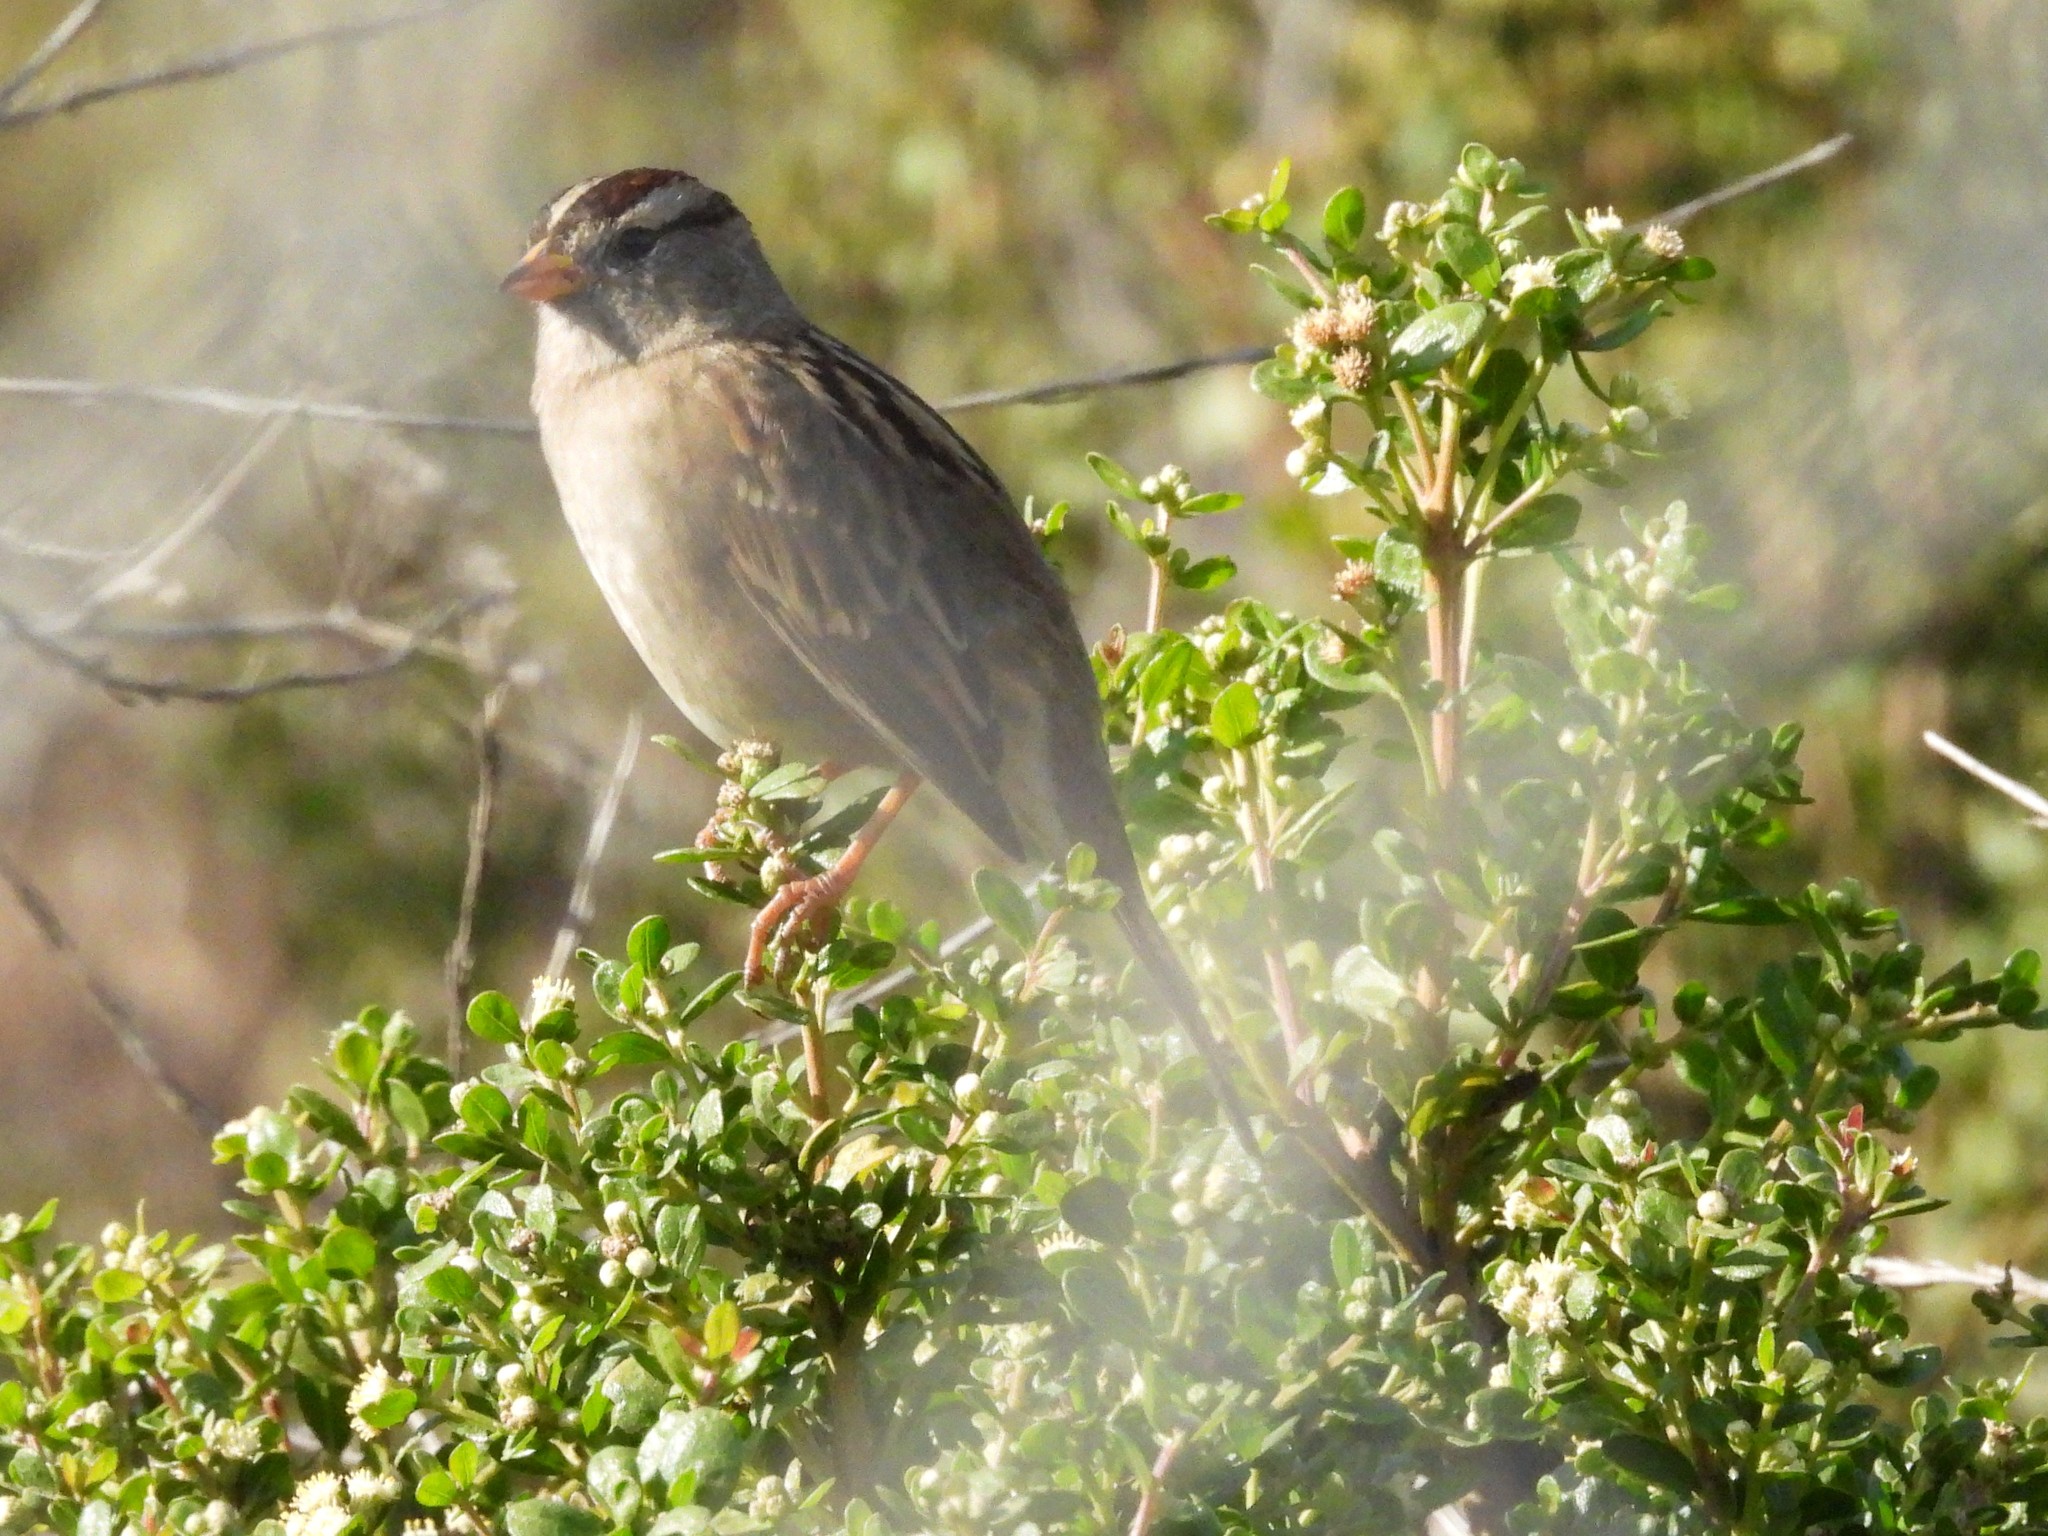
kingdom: Animalia
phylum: Chordata
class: Aves
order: Passeriformes
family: Passerellidae
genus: Zonotrichia
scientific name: Zonotrichia leucophrys
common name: White-crowned sparrow
